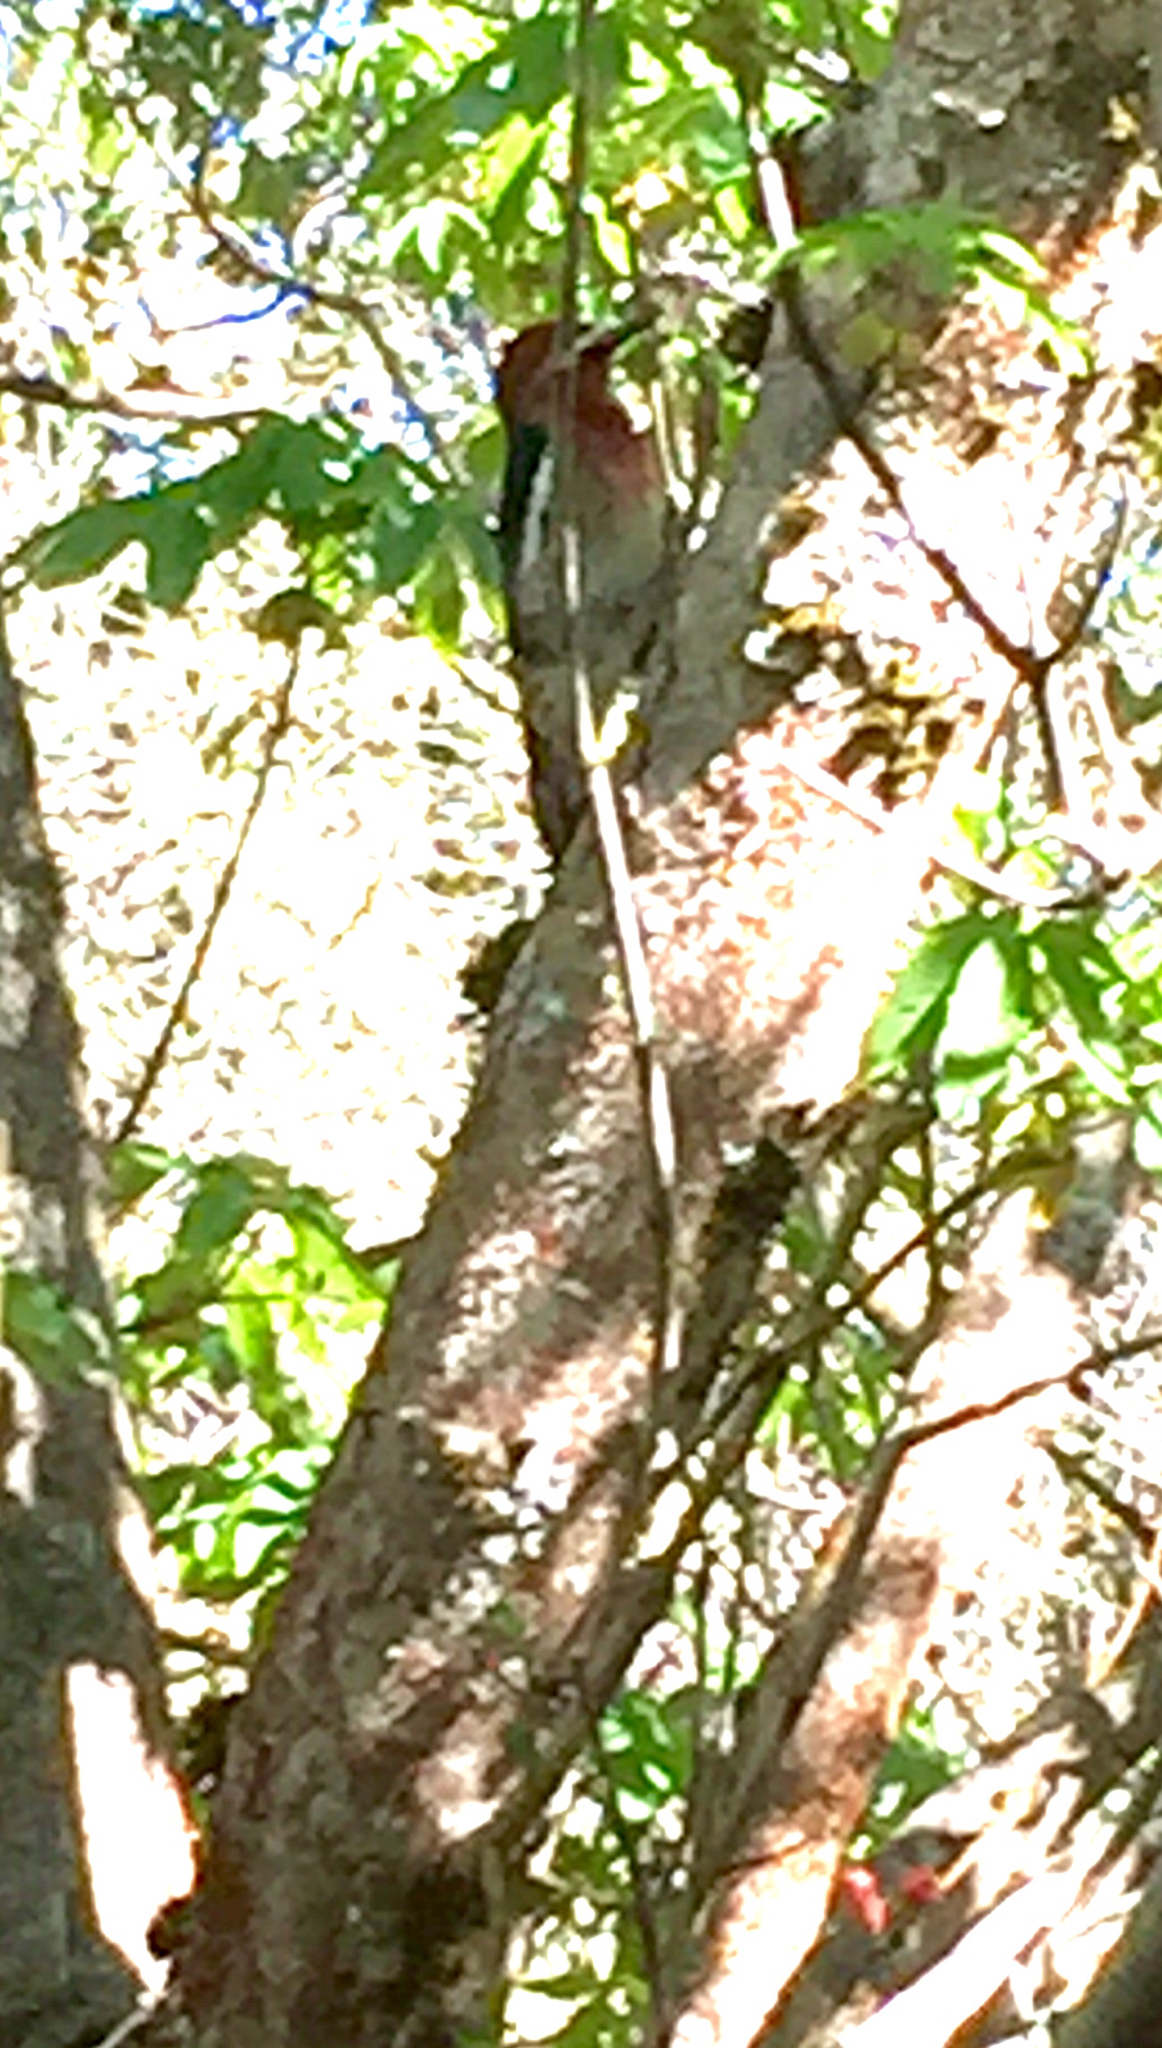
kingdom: Animalia
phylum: Chordata
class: Aves
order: Piciformes
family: Picidae
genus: Sphyrapicus
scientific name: Sphyrapicus ruber
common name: Red-breasted sapsucker
